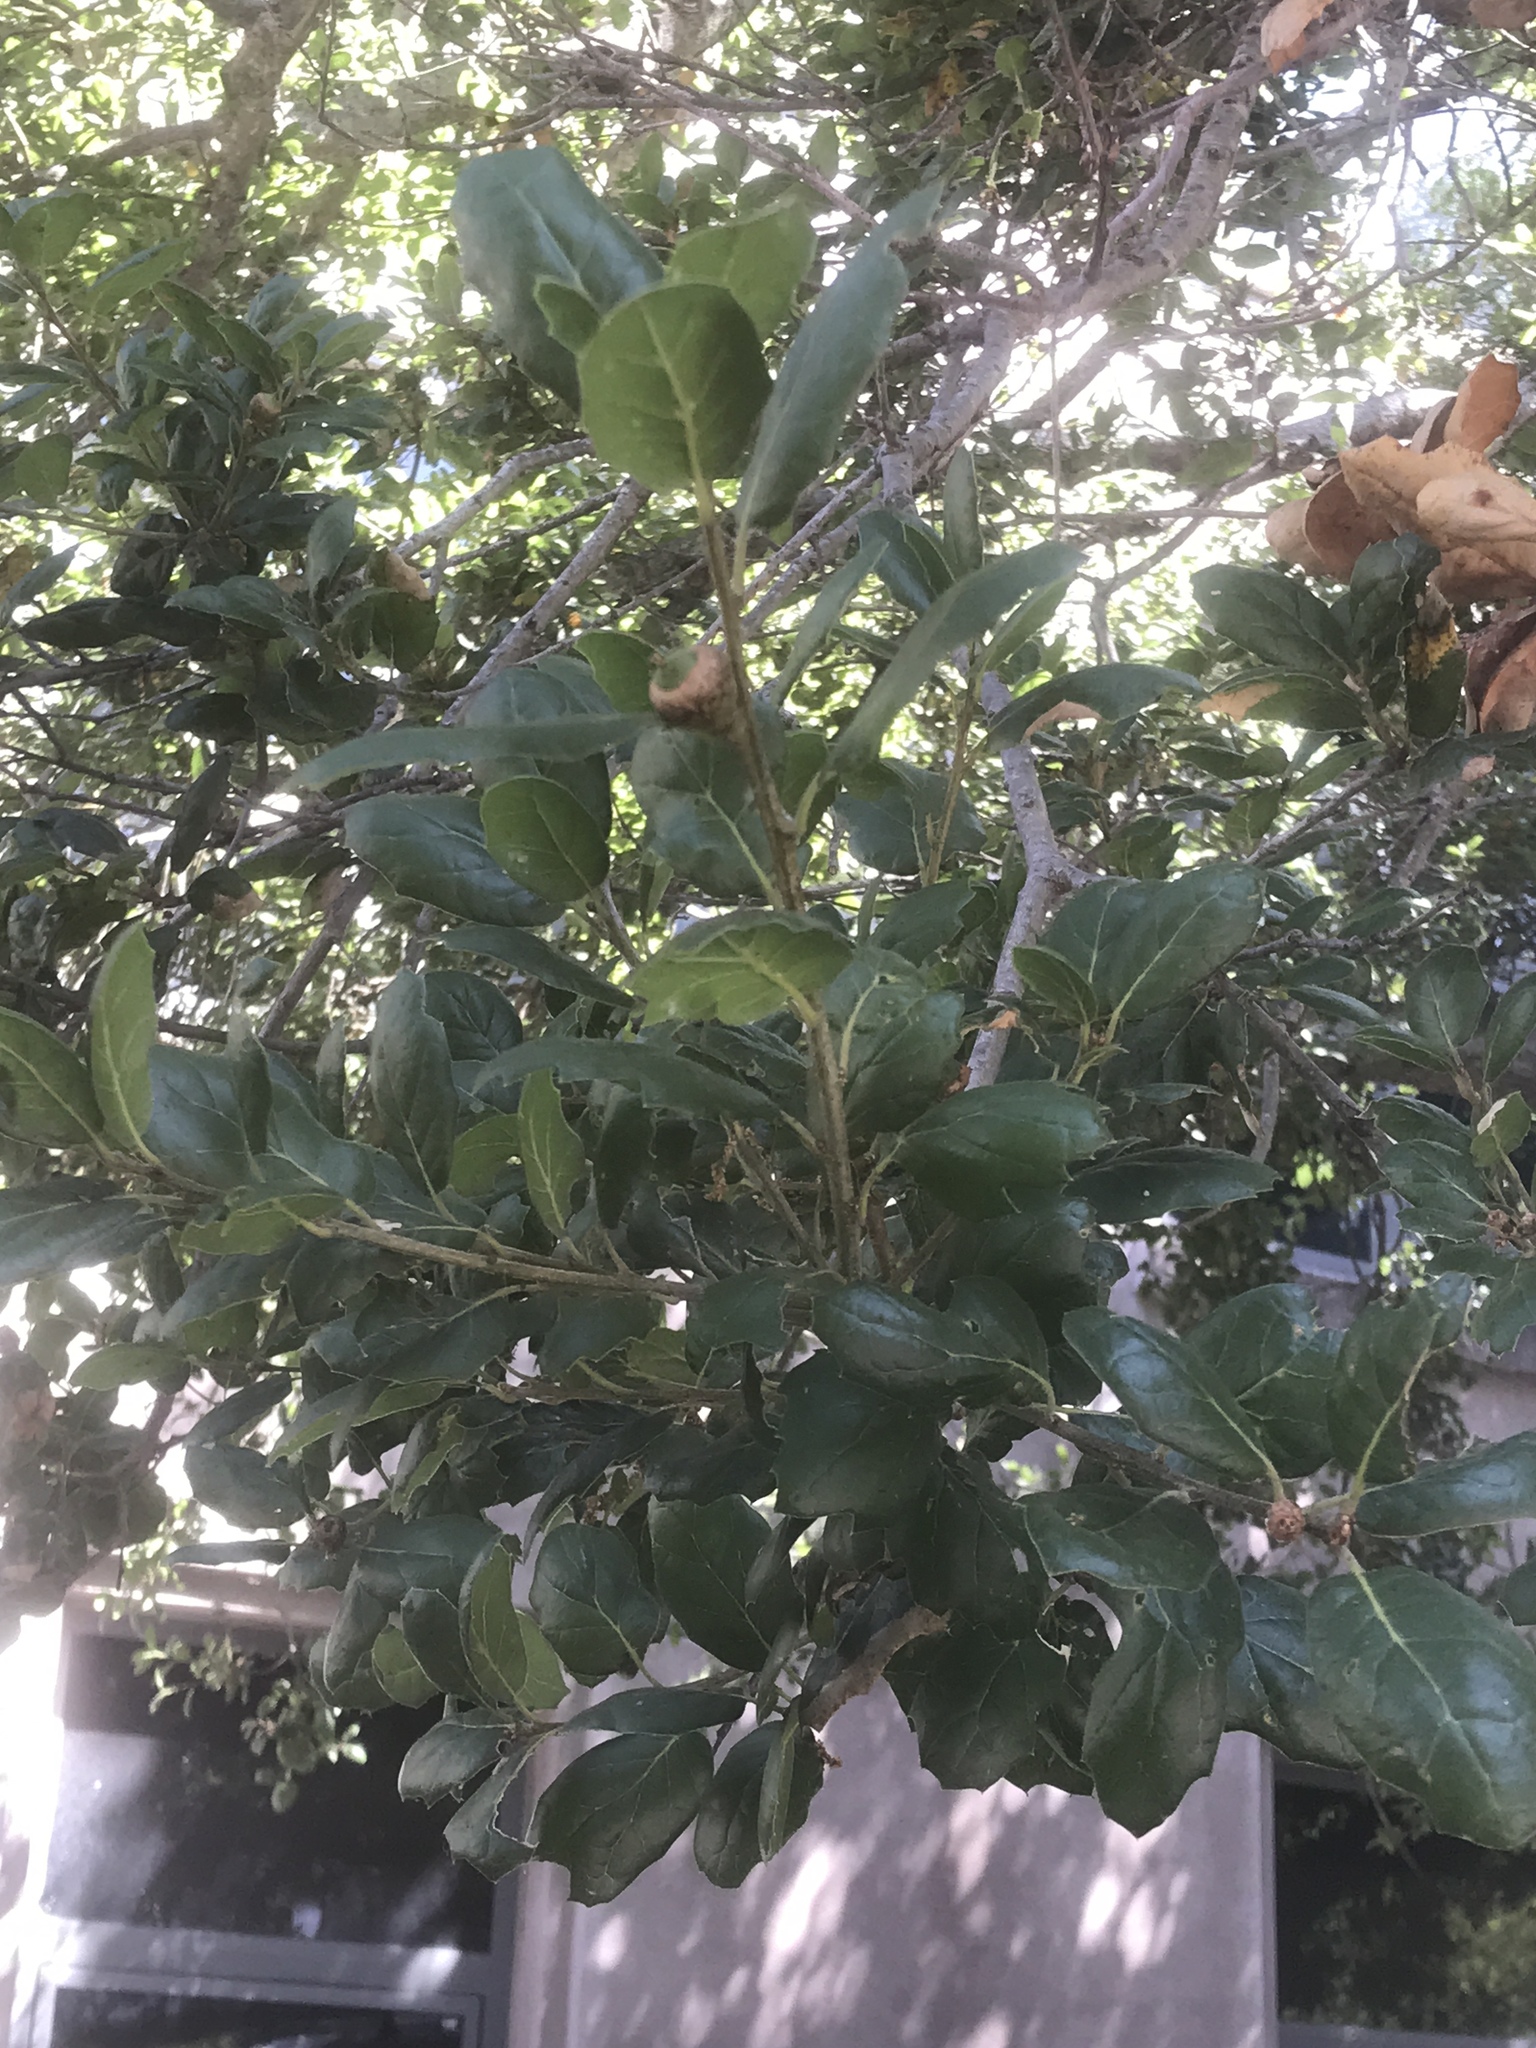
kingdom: Plantae
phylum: Tracheophyta
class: Magnoliopsida
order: Fagales
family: Fagaceae
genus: Quercus
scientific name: Quercus agrifolia
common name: California live oak
